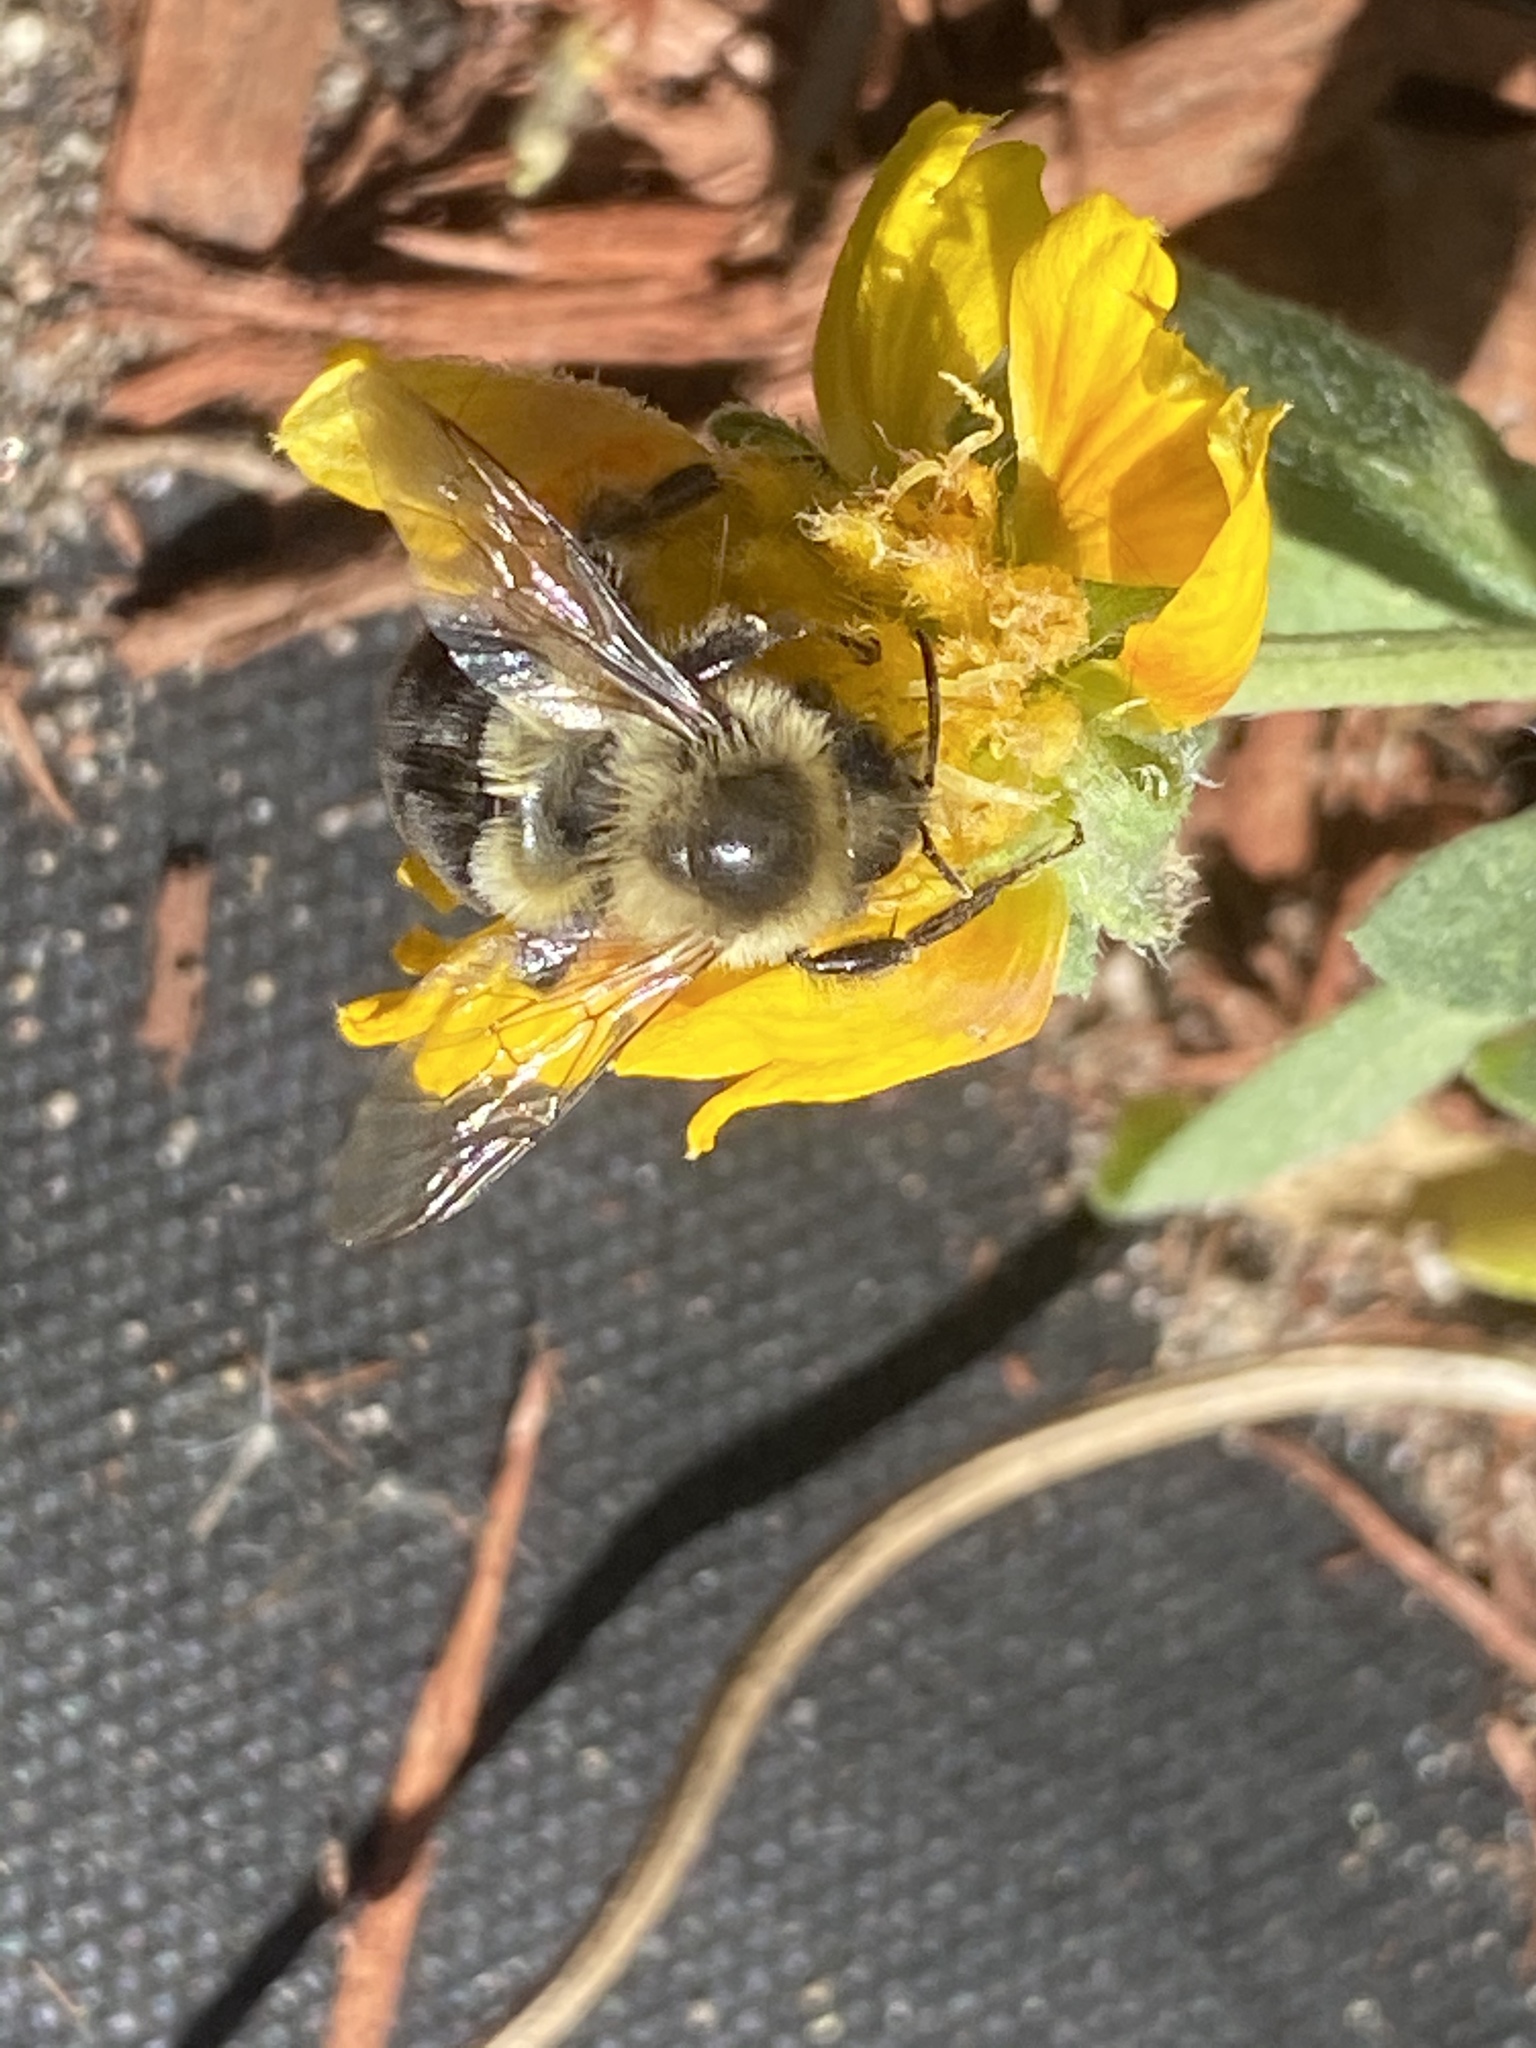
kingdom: Animalia
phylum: Arthropoda
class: Insecta
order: Hymenoptera
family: Apidae
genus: Bombus
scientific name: Bombus impatiens
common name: Common eastern bumble bee
